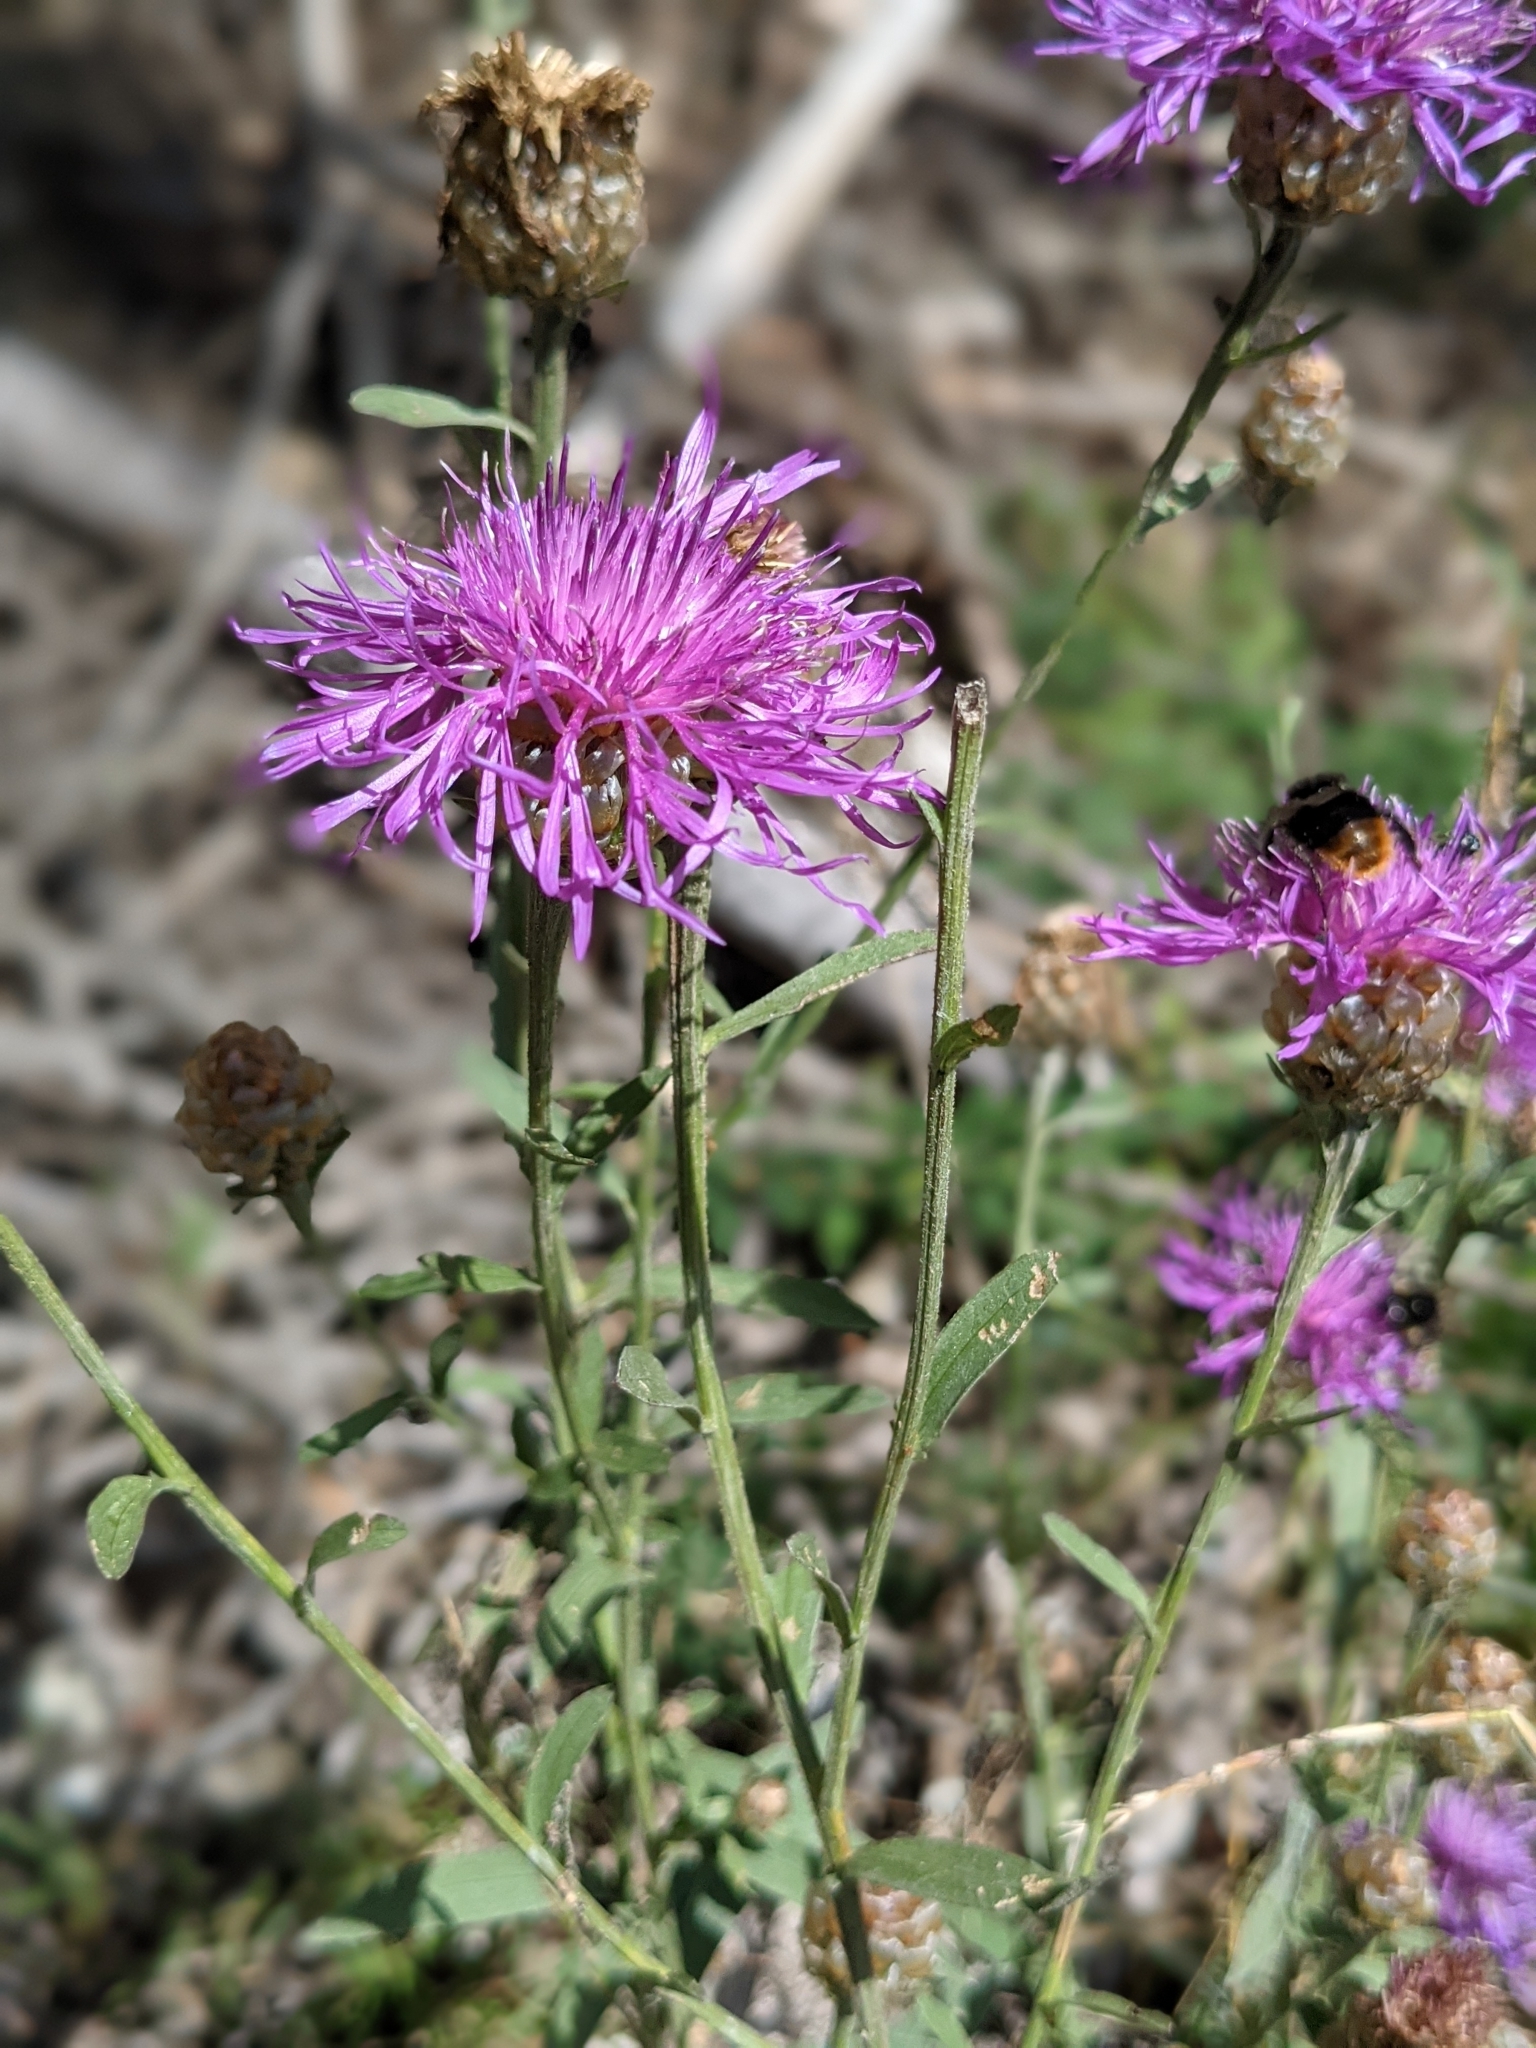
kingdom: Plantae
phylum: Tracheophyta
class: Magnoliopsida
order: Asterales
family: Asteraceae
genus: Centaurea
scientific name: Centaurea jacea
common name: Brown knapweed
